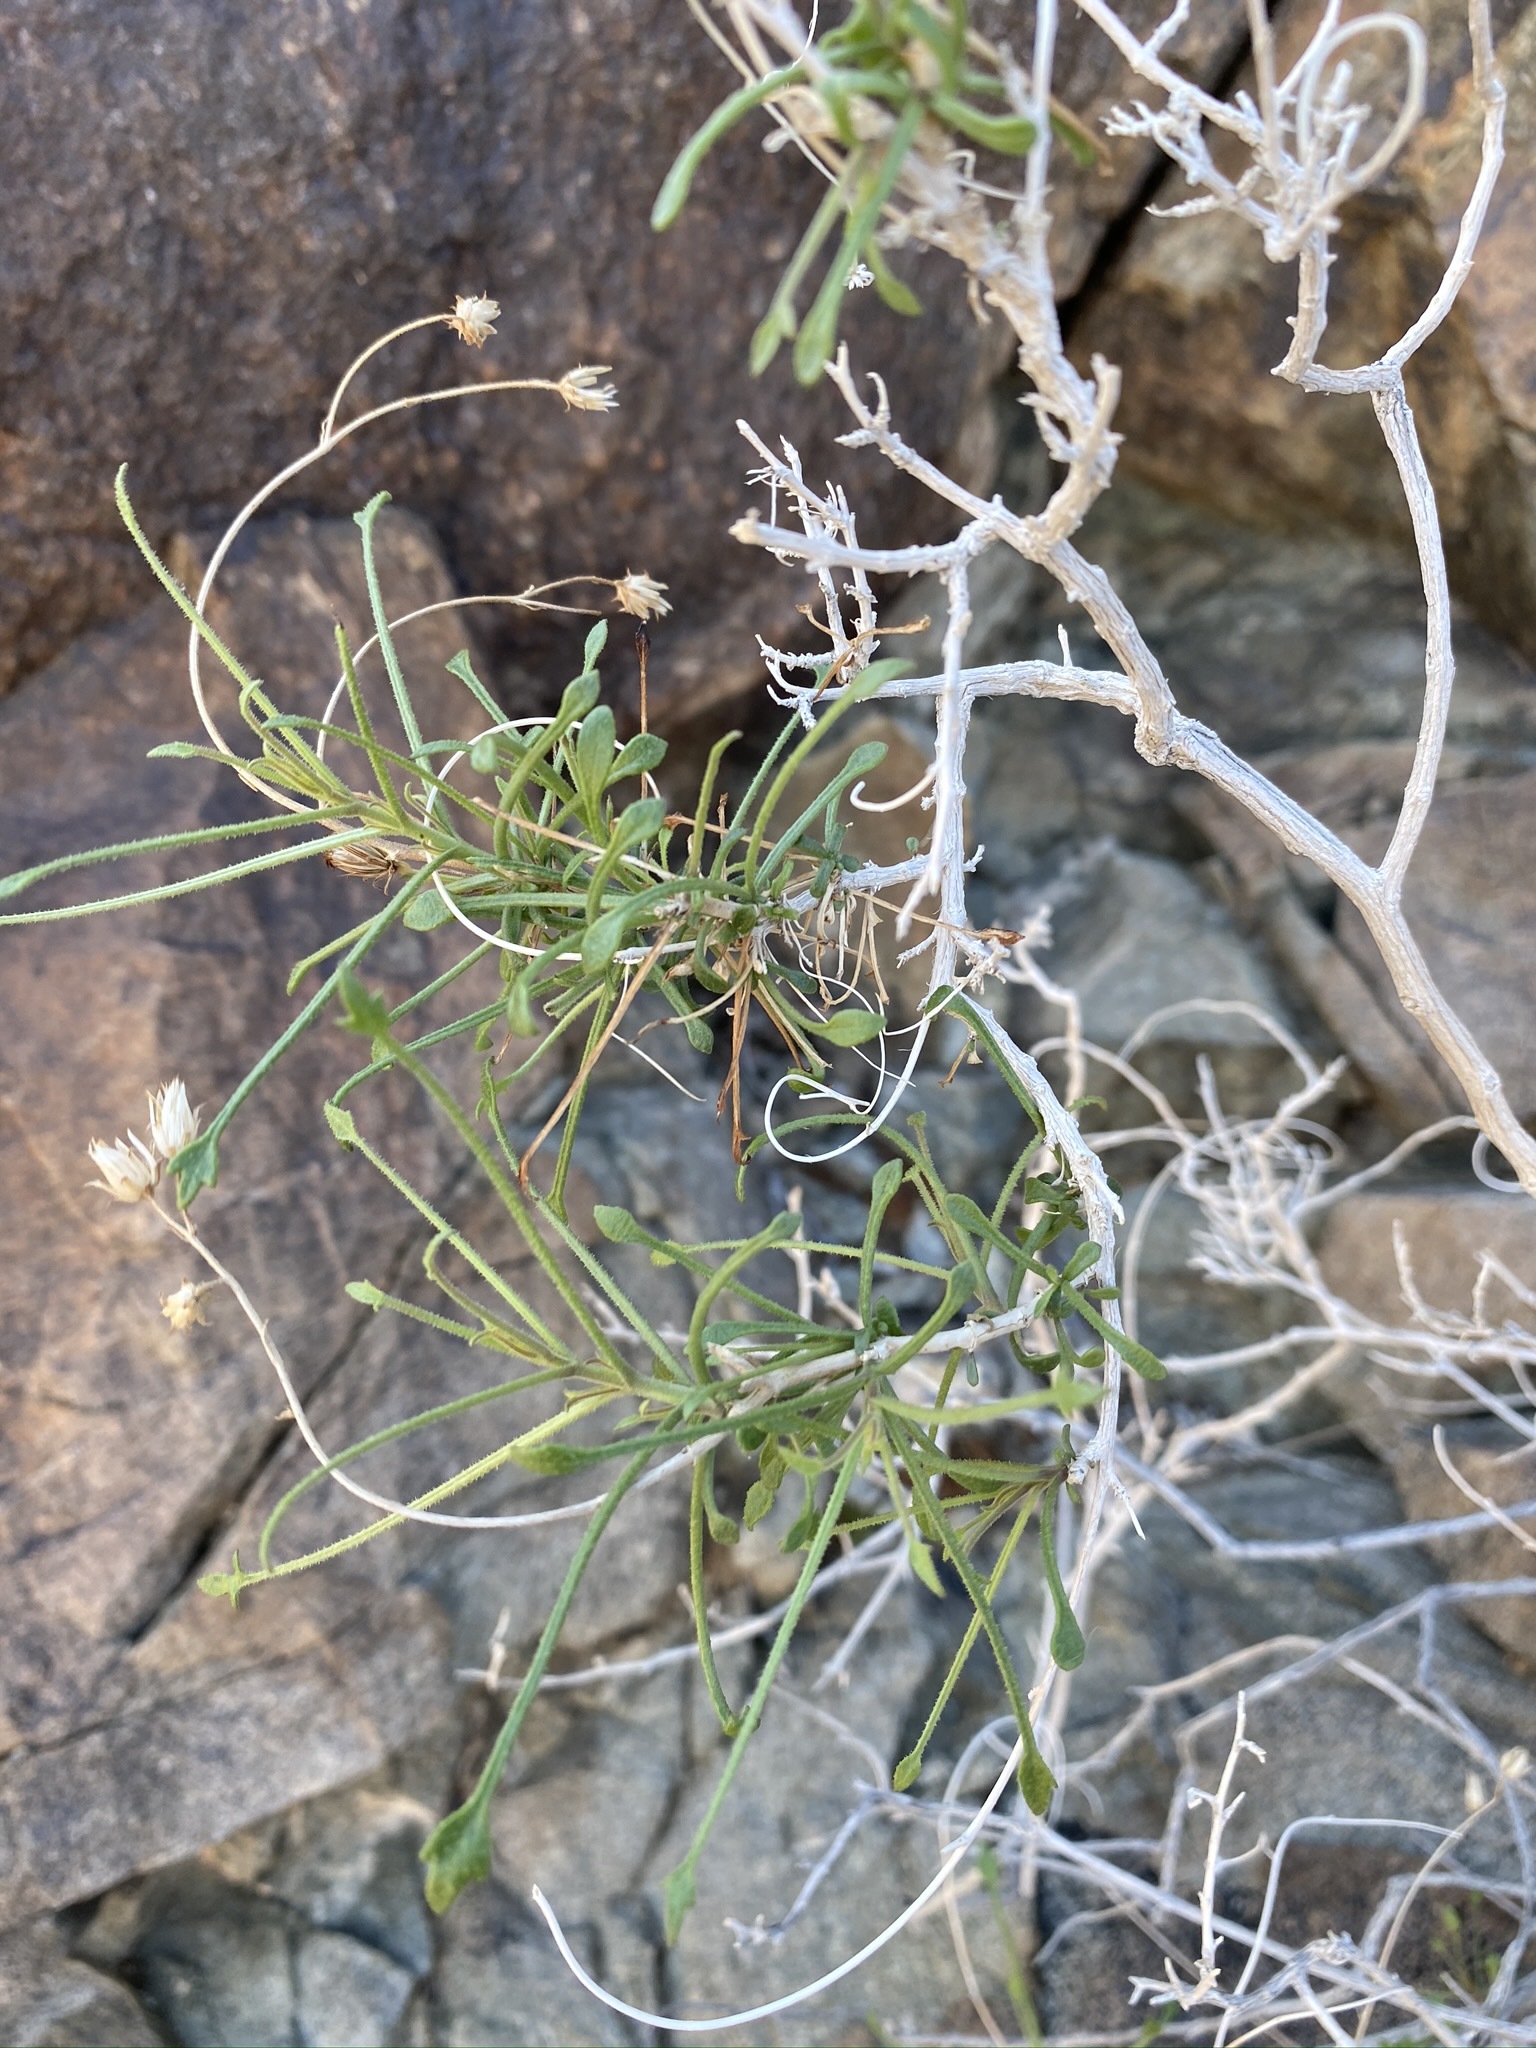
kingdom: Plantae
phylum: Tracheophyta
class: Magnoliopsida
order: Asterales
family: Asteraceae
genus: Pleurocoronis
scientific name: Pleurocoronis pluriseta
